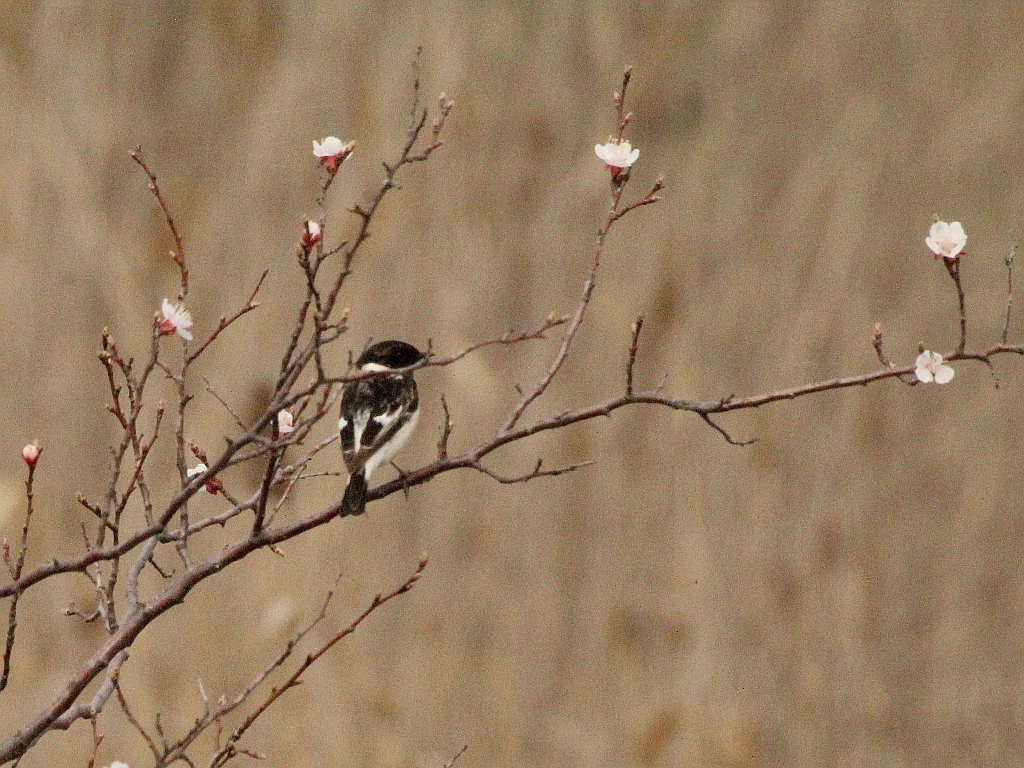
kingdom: Animalia
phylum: Chordata
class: Aves
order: Passeriformes
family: Muscicapidae
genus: Saxicola
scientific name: Saxicola maurus
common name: Siberian stonechat
